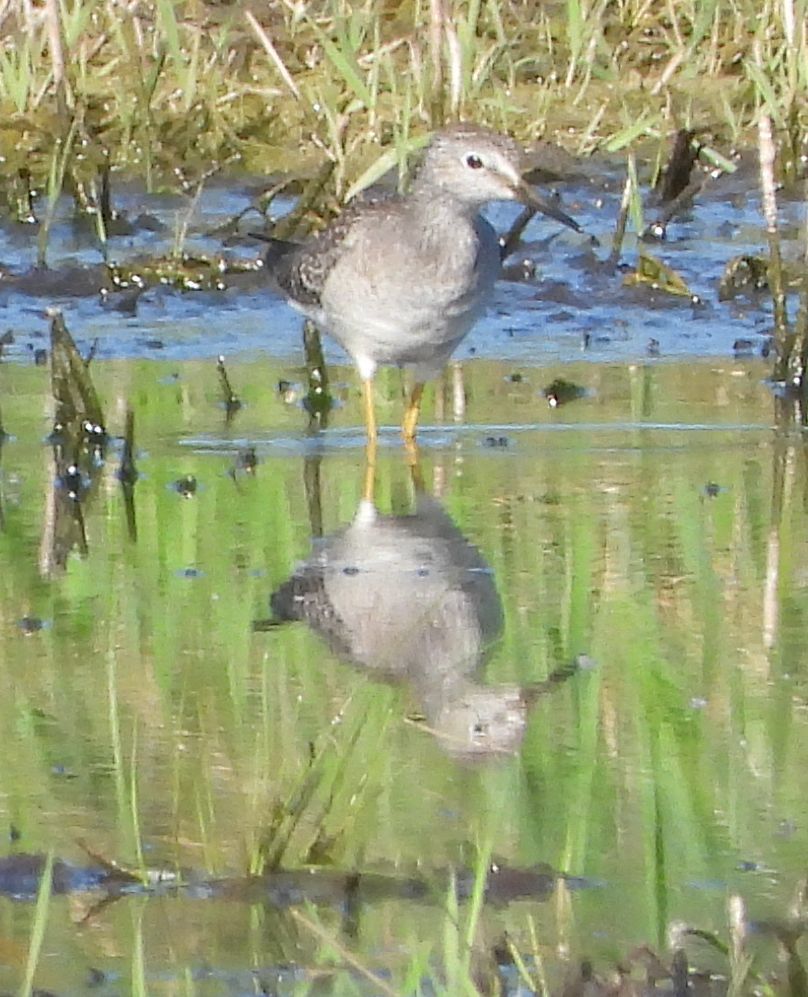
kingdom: Animalia
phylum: Chordata
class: Aves
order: Charadriiformes
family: Scolopacidae
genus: Tringa
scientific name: Tringa flavipes
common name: Lesser yellowlegs
